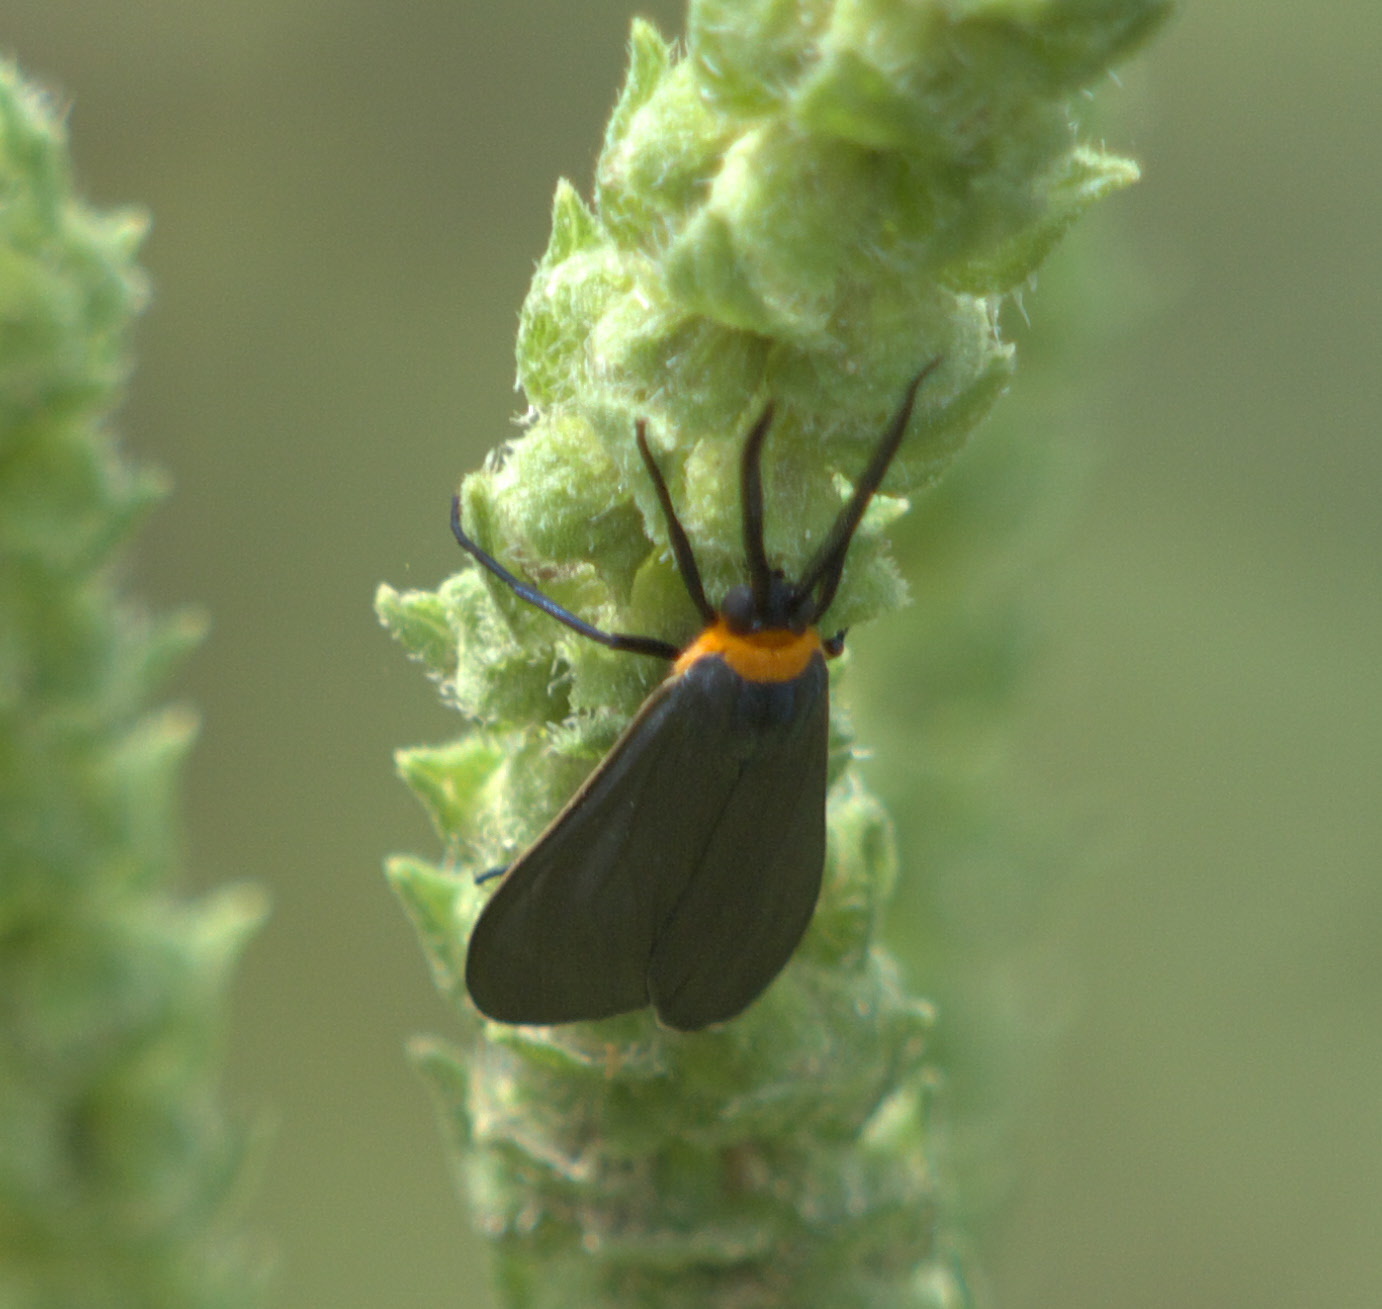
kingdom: Animalia
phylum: Arthropoda
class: Insecta
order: Lepidoptera
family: Erebidae
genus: Cisseps
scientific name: Cisseps fulvicollis
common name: Yellow-collared scape moth
